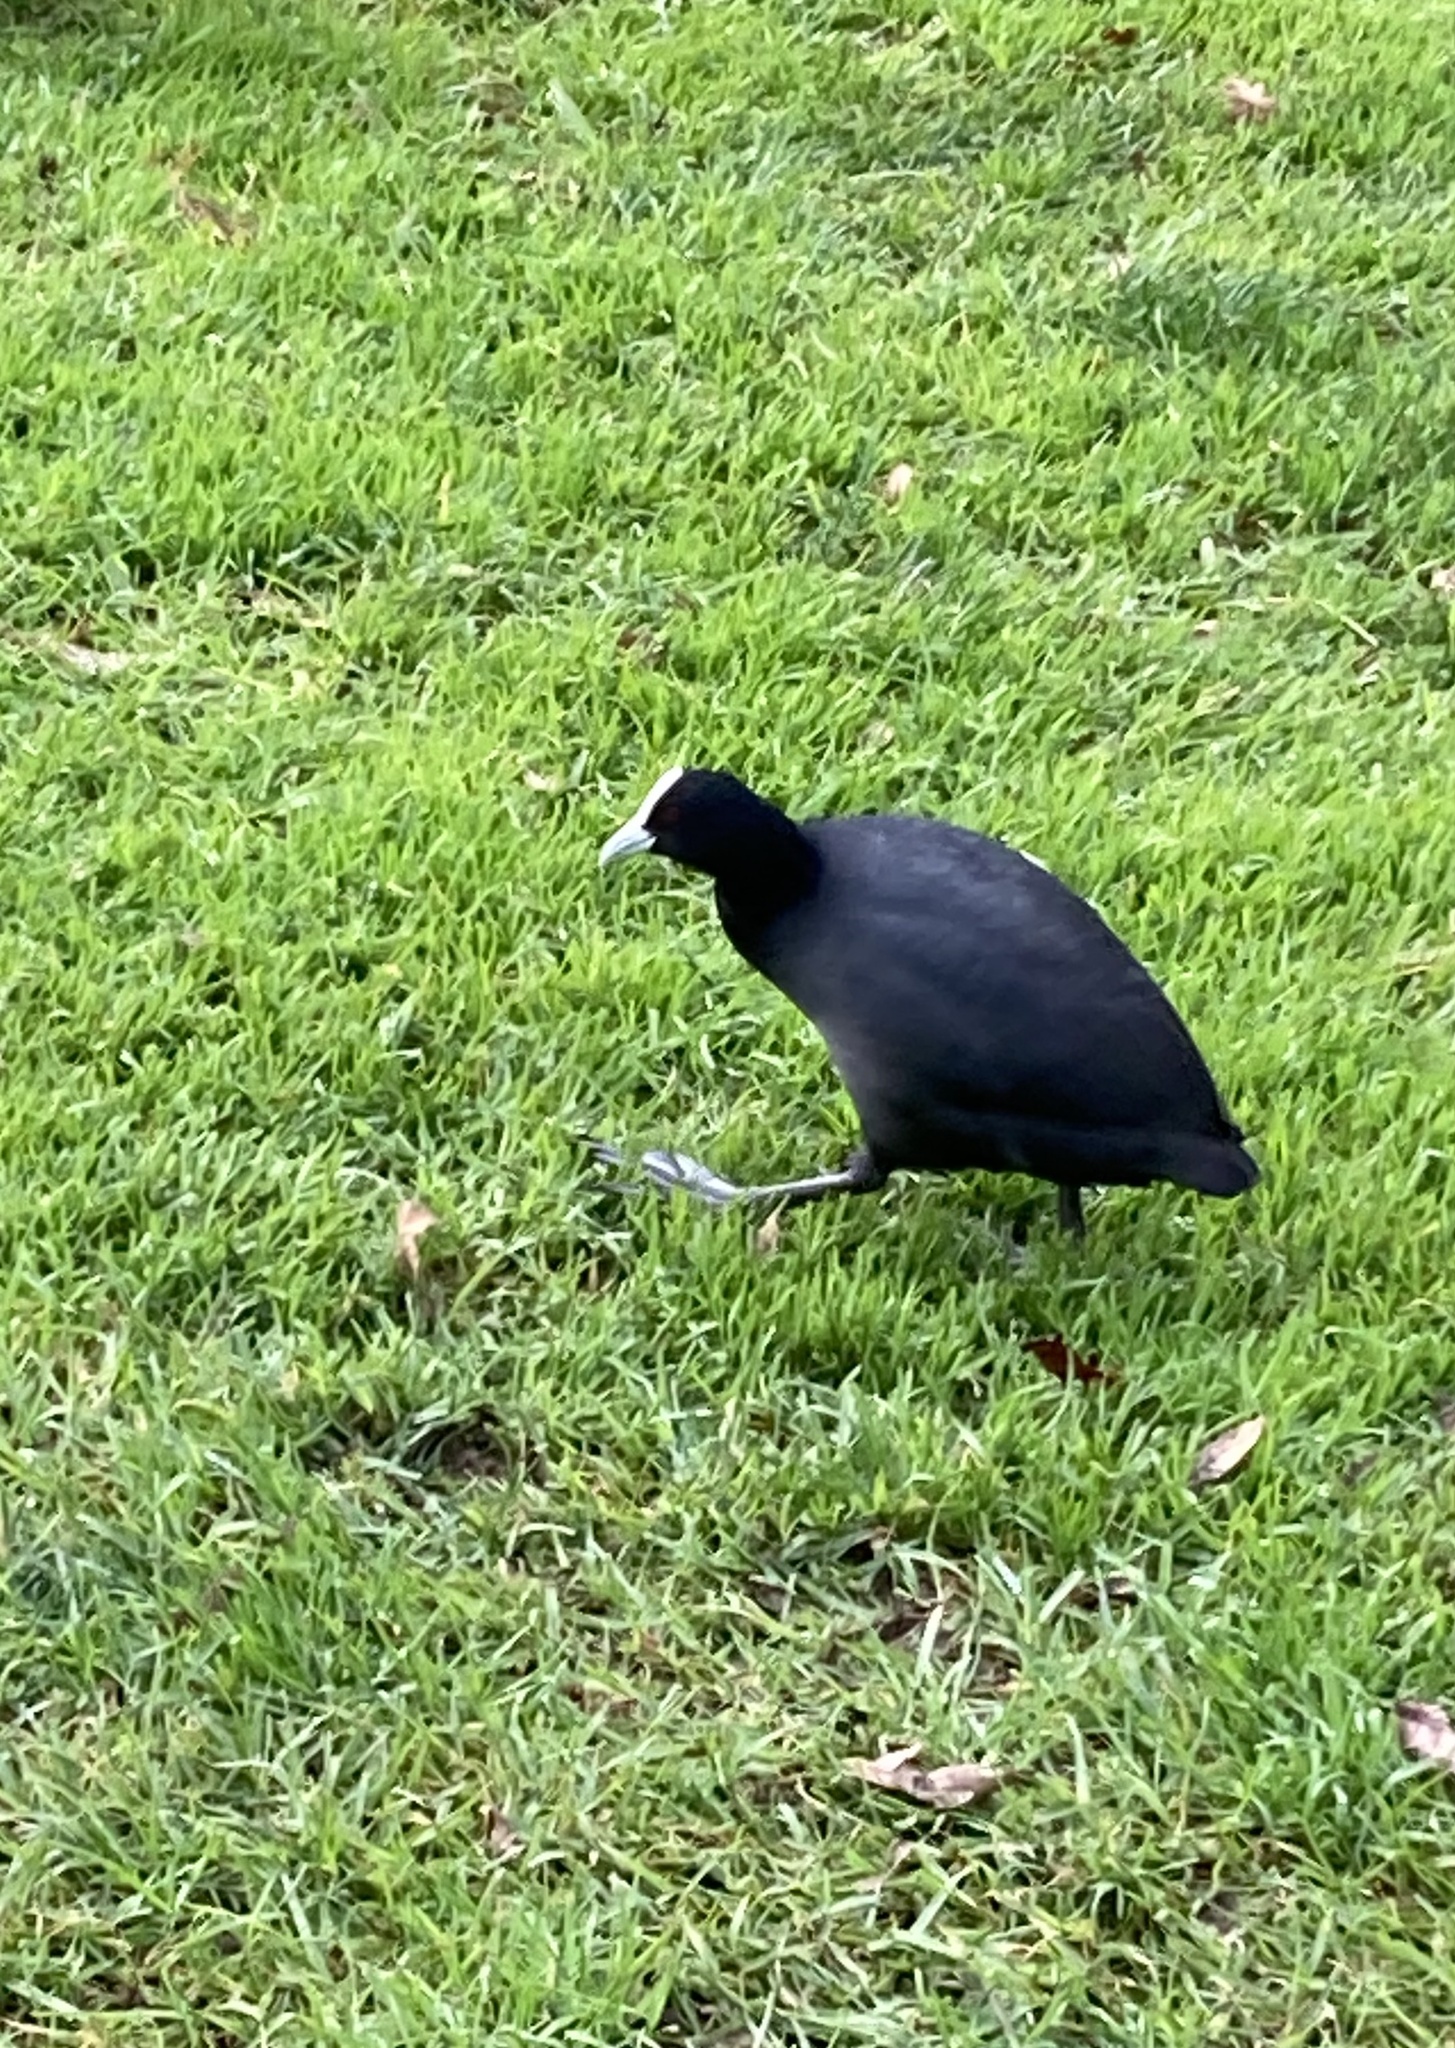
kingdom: Animalia
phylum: Chordata
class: Aves
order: Gruiformes
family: Rallidae
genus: Fulica
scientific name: Fulica atra
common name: Eurasian coot
